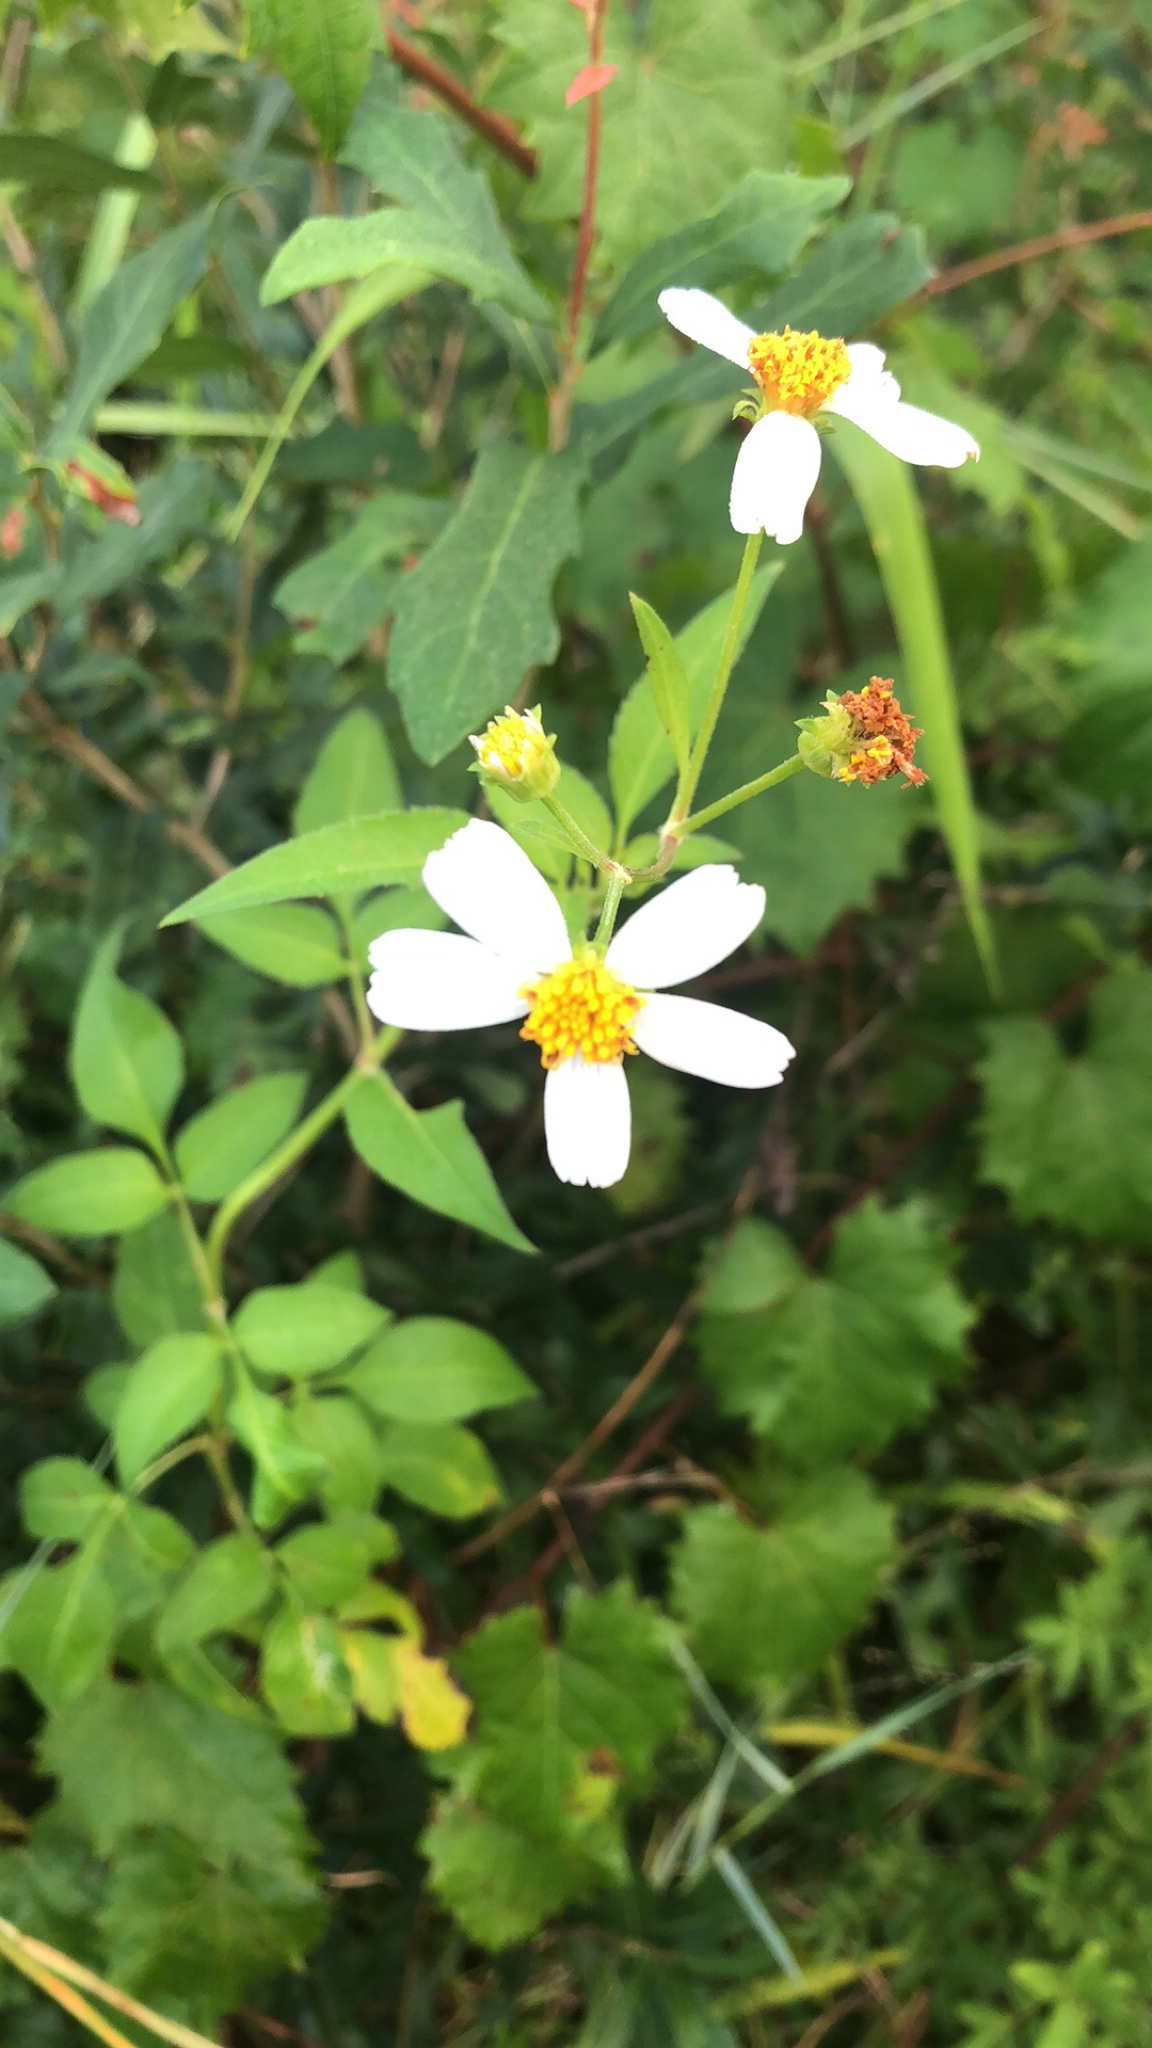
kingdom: Plantae
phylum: Tracheophyta
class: Magnoliopsida
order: Asterales
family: Asteraceae
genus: Bidens
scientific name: Bidens alba
